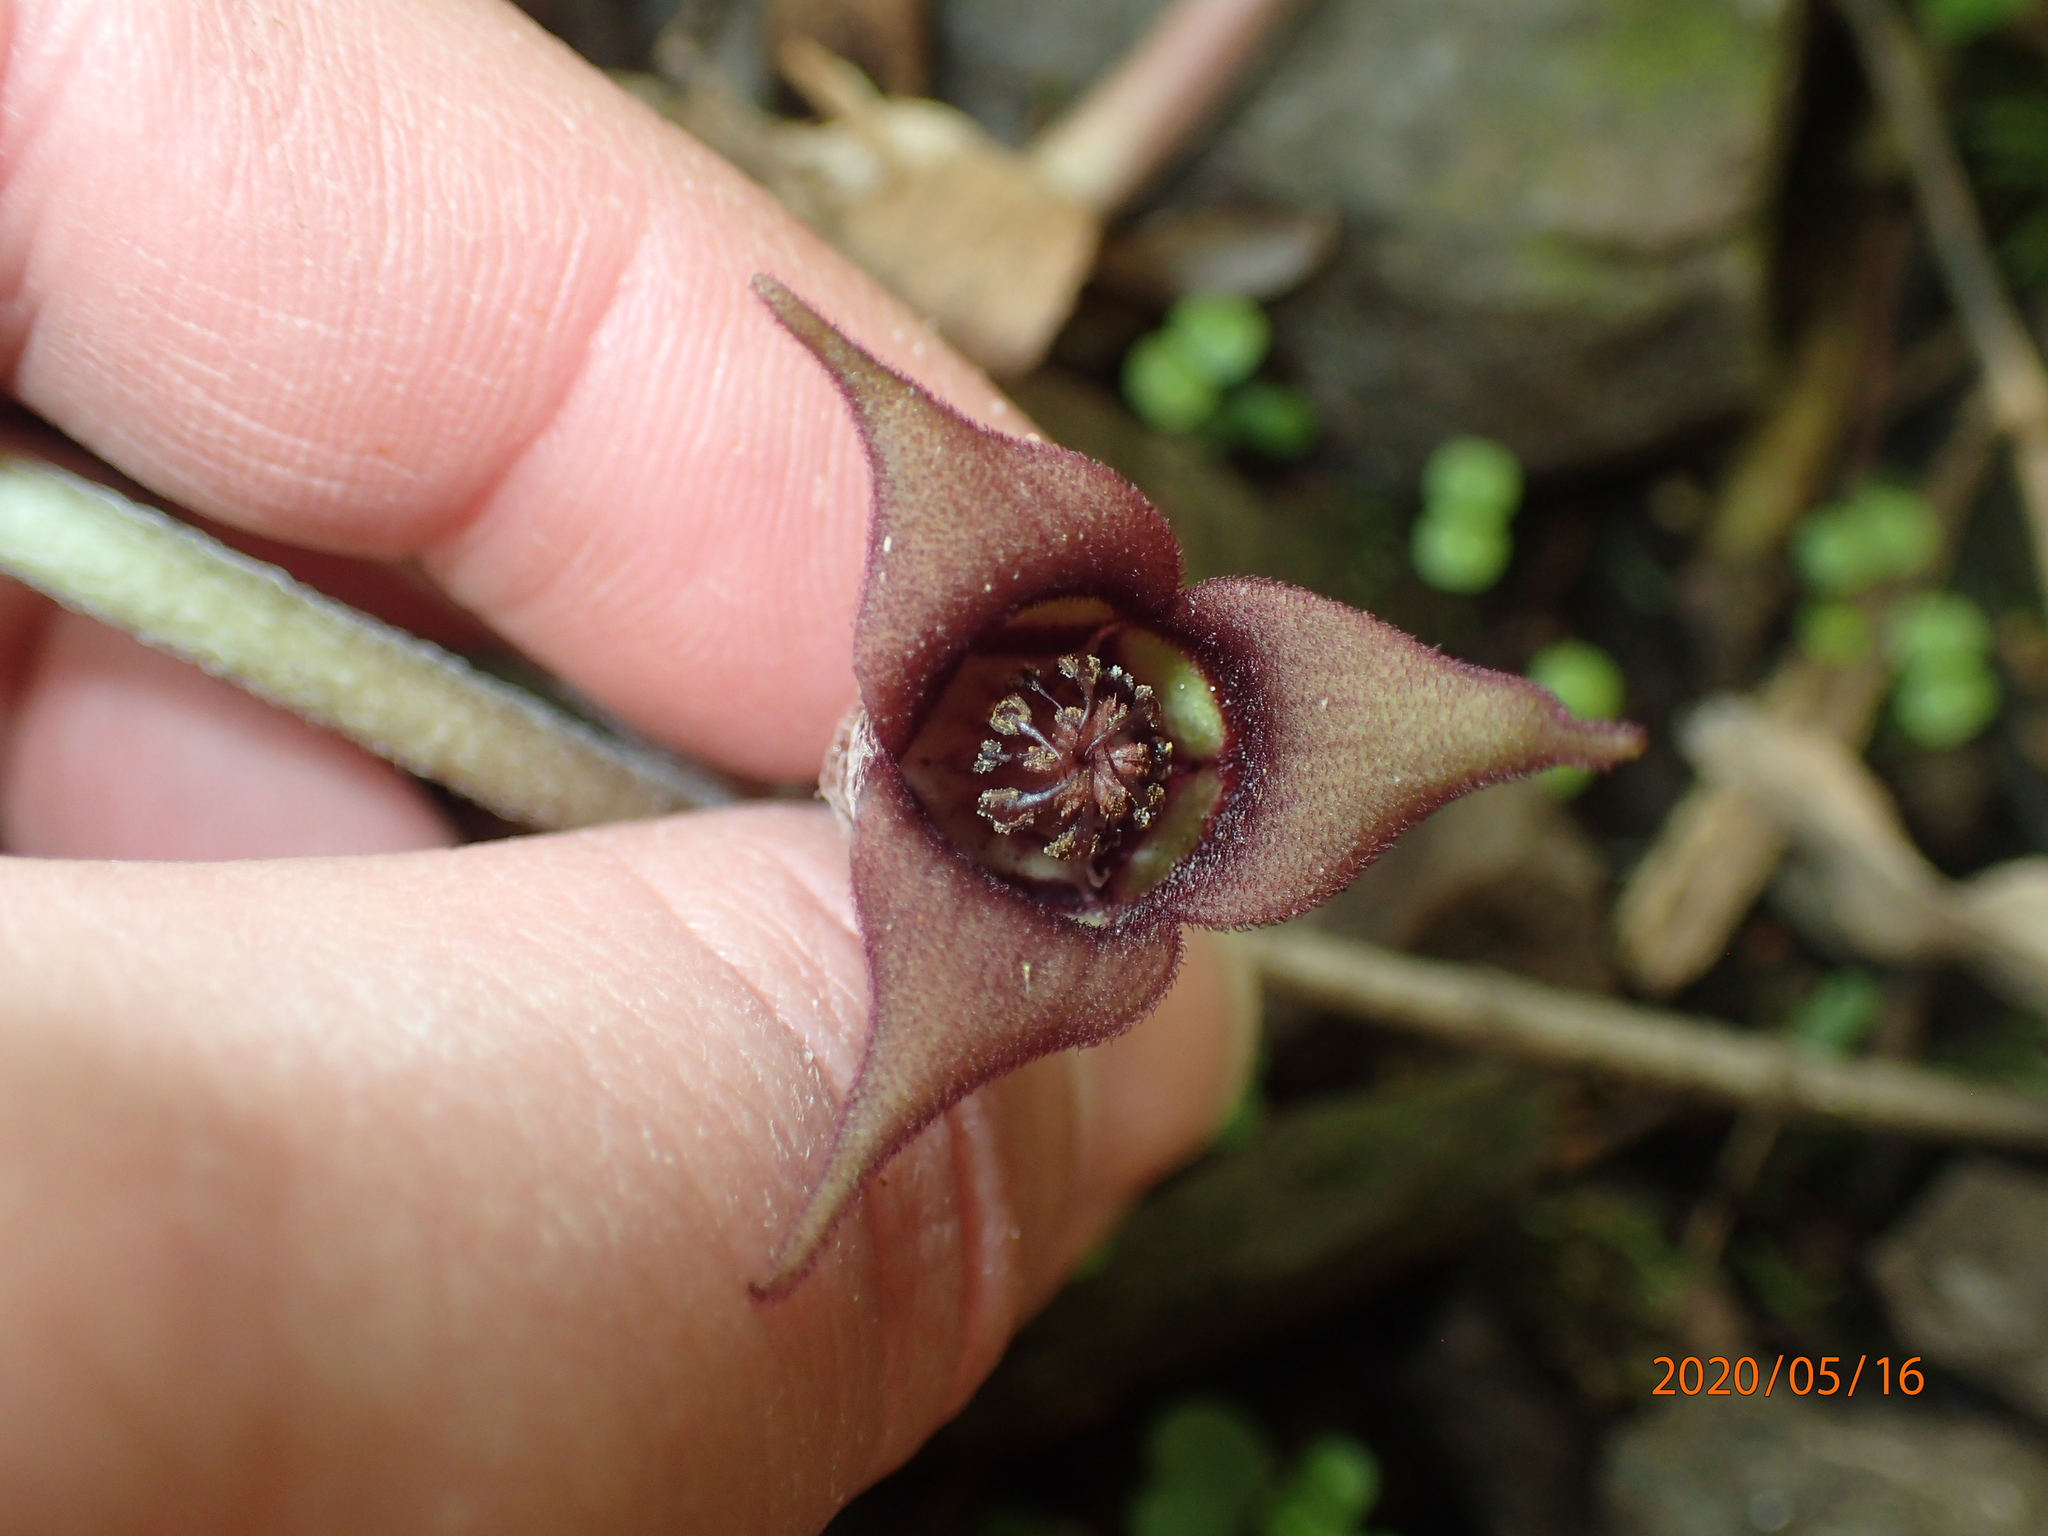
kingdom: Plantae
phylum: Tracheophyta
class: Magnoliopsida
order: Piperales
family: Aristolochiaceae
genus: Asarum
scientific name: Asarum canadense
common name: Wild ginger
